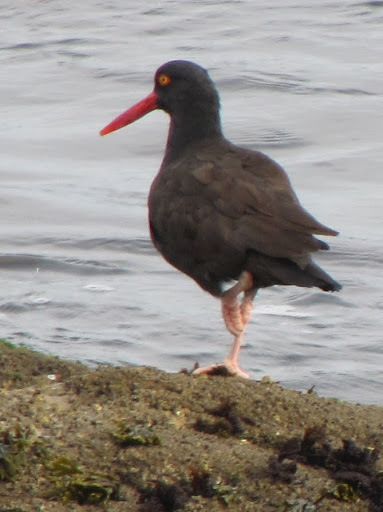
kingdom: Animalia
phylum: Chordata
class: Aves
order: Charadriiformes
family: Haematopodidae
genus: Haematopus
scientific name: Haematopus bachmani
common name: Black oystercatcher
